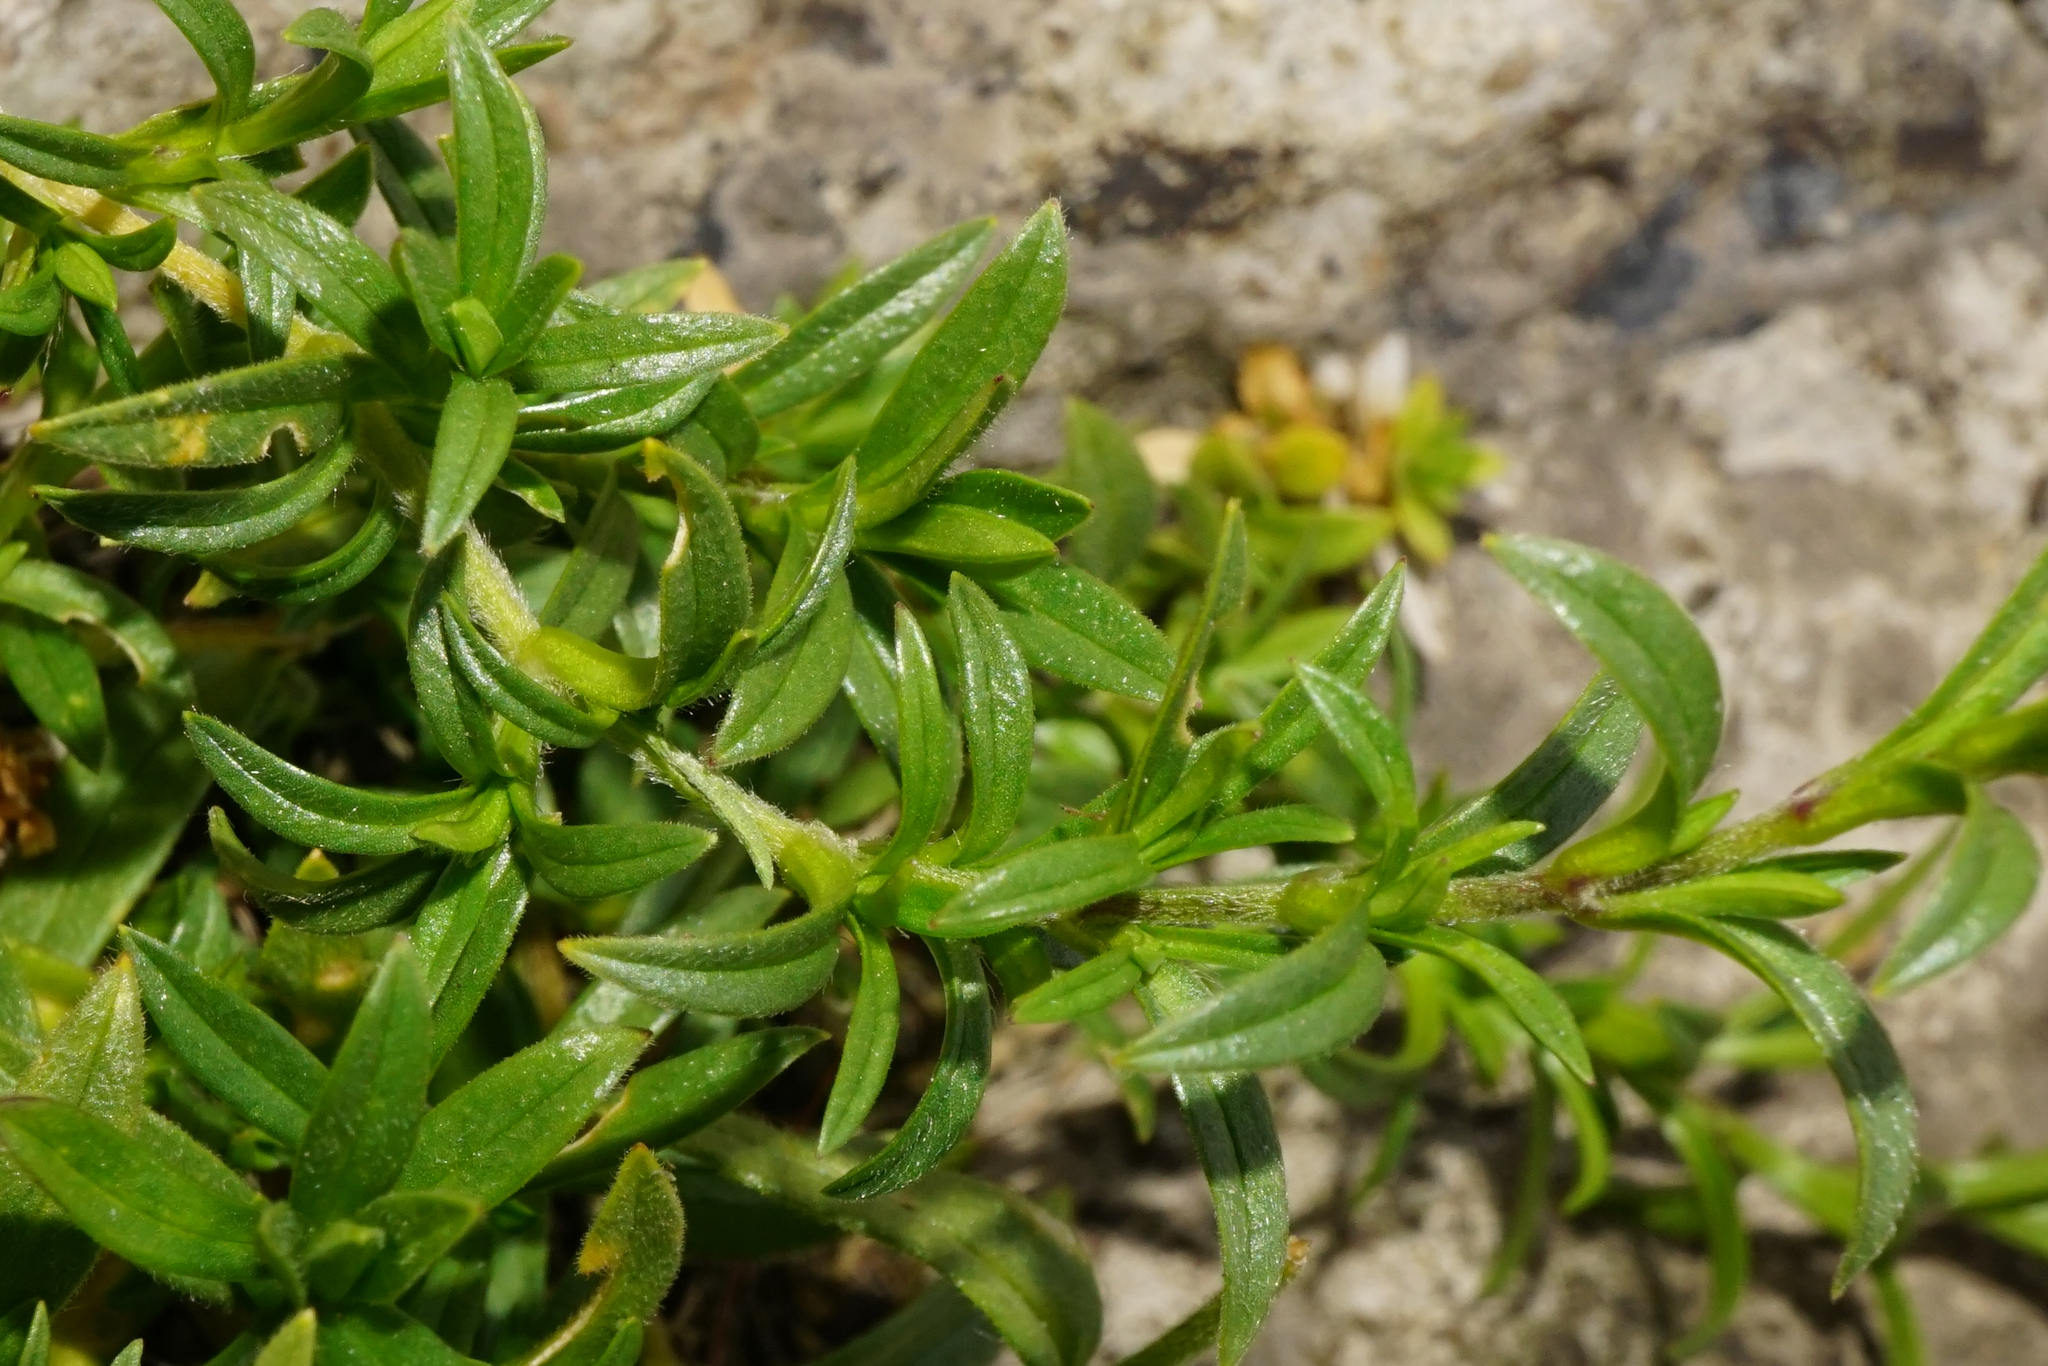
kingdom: Plantae
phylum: Tracheophyta
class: Magnoliopsida
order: Caryophyllales
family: Caryophyllaceae
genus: Cerastium
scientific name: Cerastium arvense
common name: Field mouse-ear
